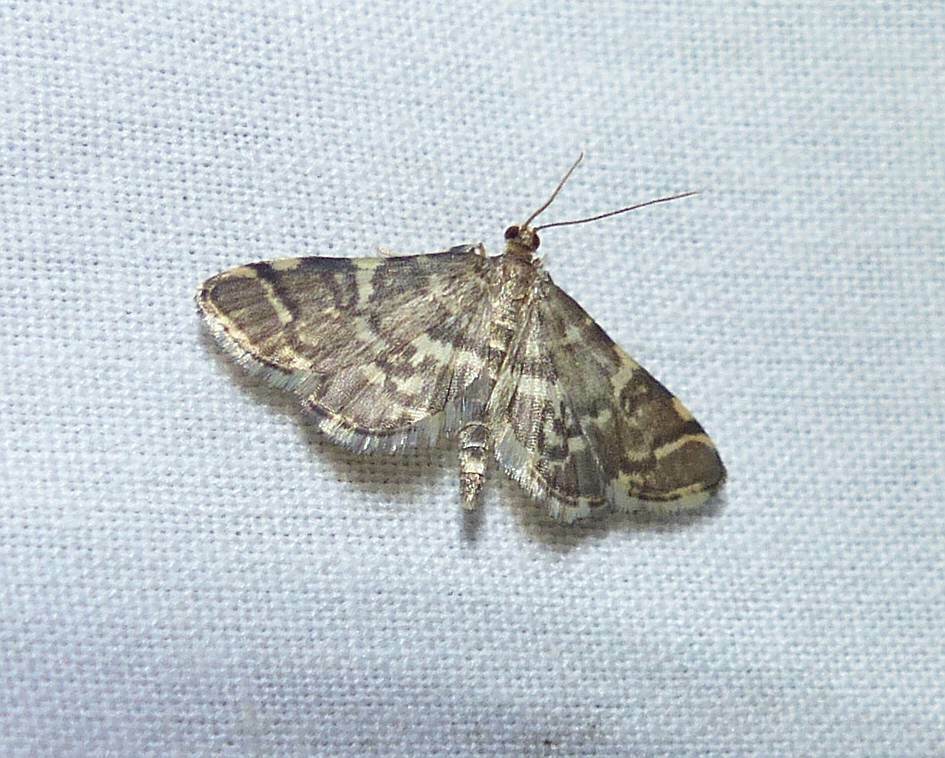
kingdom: Animalia
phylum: Arthropoda
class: Insecta
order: Lepidoptera
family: Crambidae
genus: Anageshna
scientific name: Anageshna primordialis
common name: Yellow-spotted webworm moth
